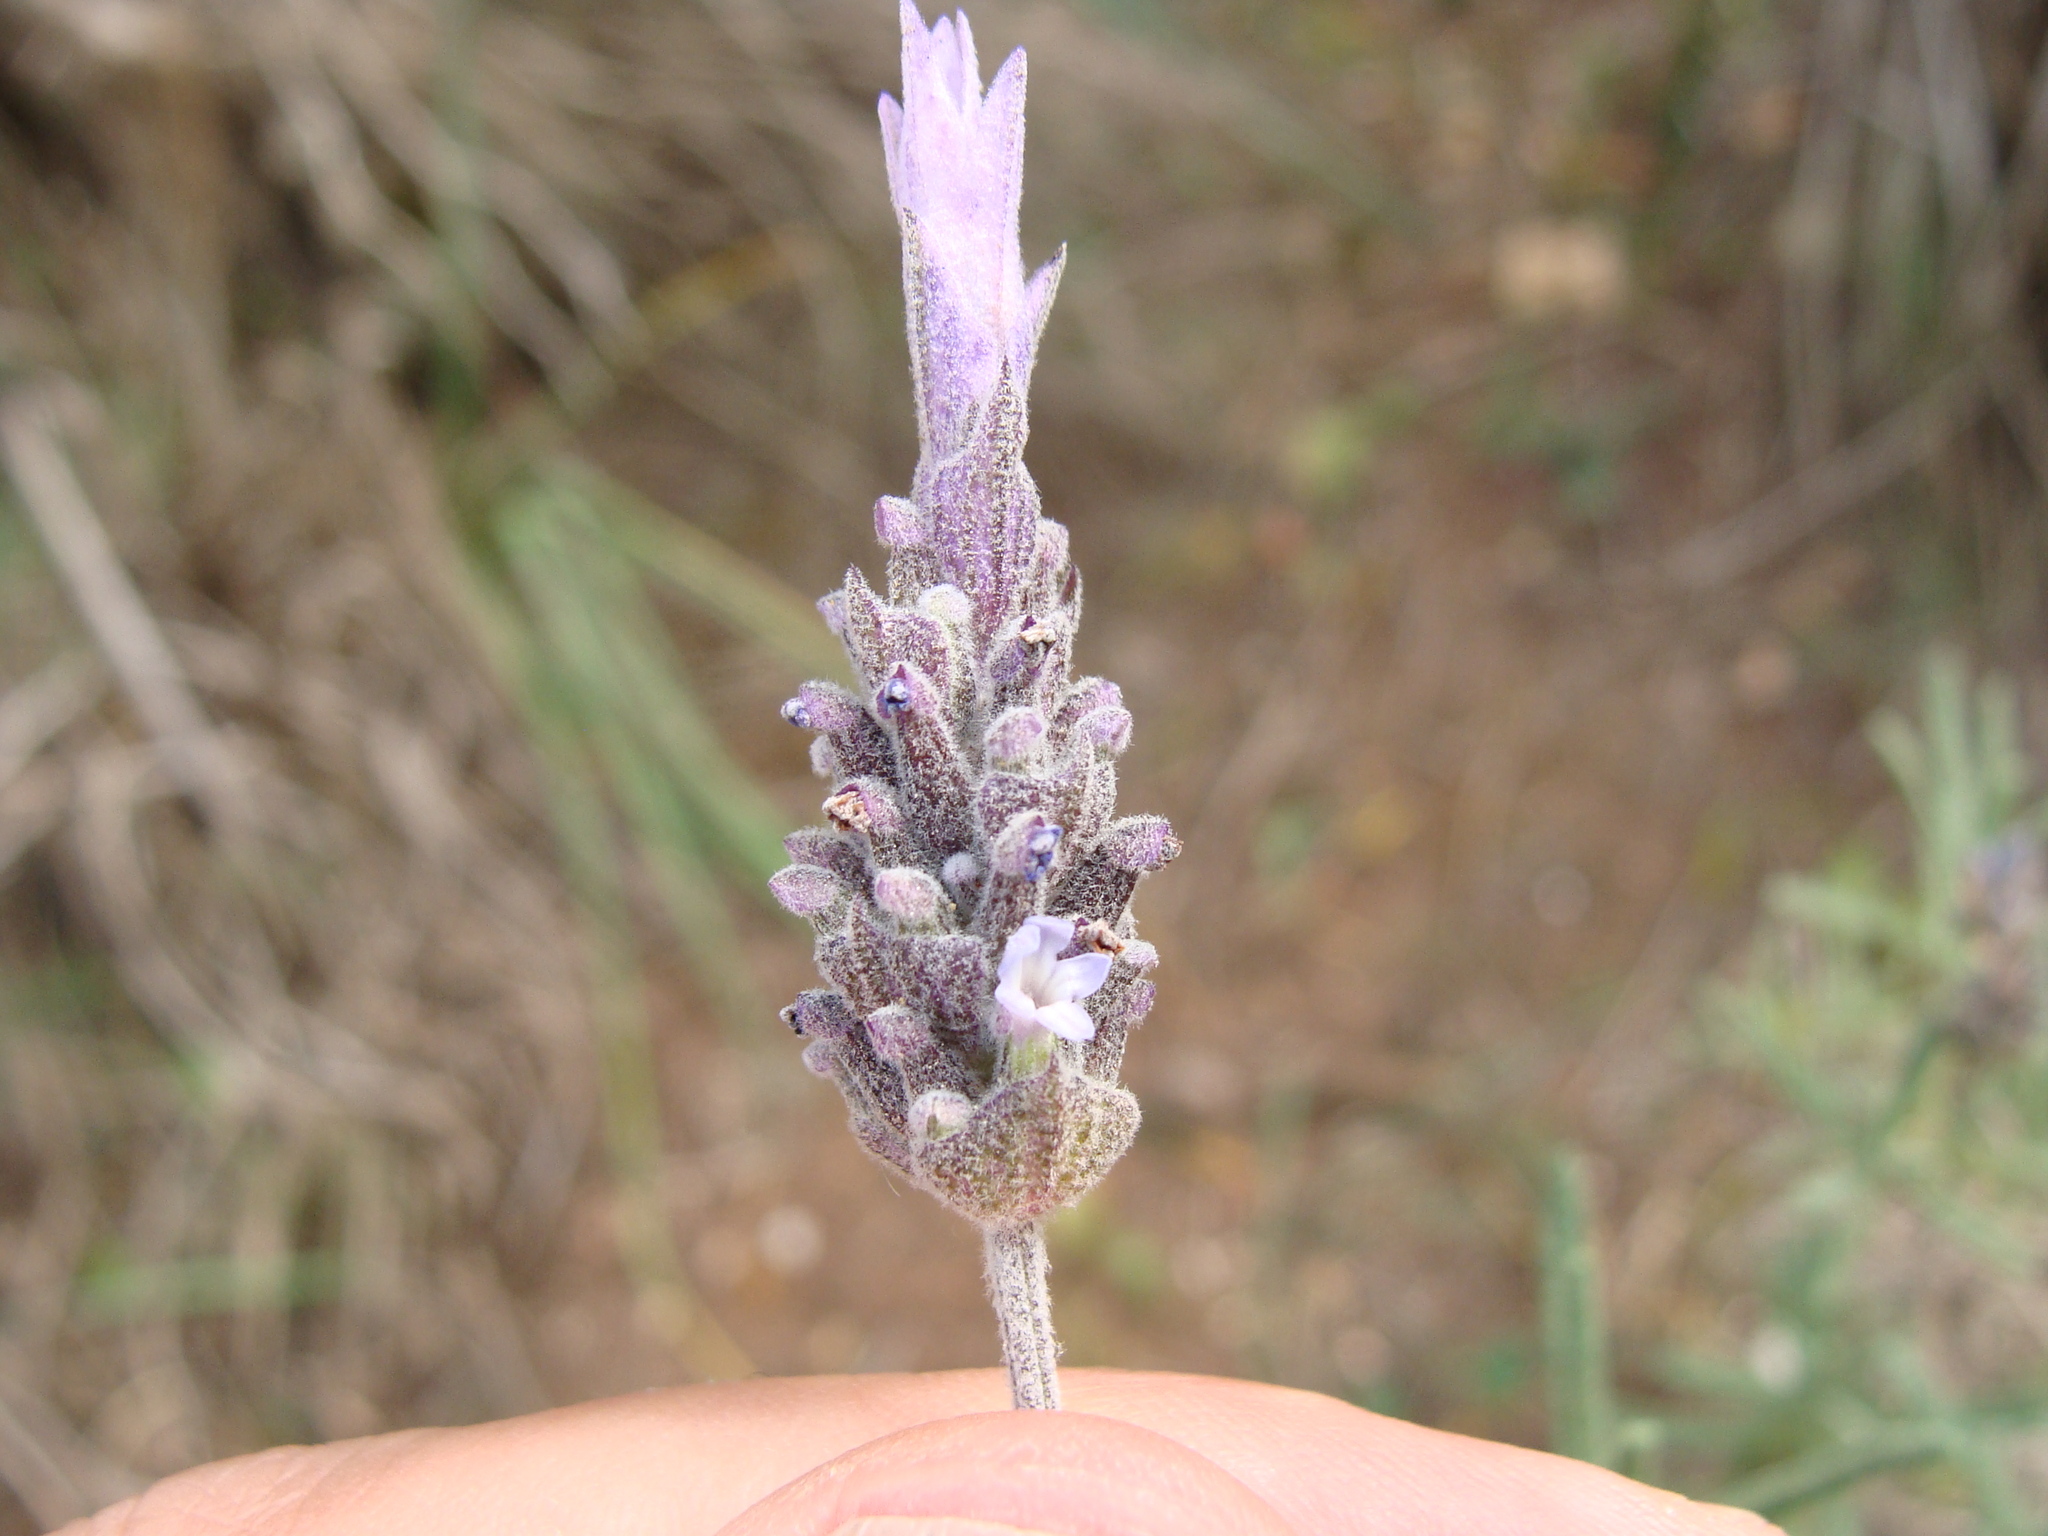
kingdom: Plantae
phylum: Tracheophyta
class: Magnoliopsida
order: Lamiales
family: Lamiaceae
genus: Lavandula
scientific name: Lavandula dentata
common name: French lavender
